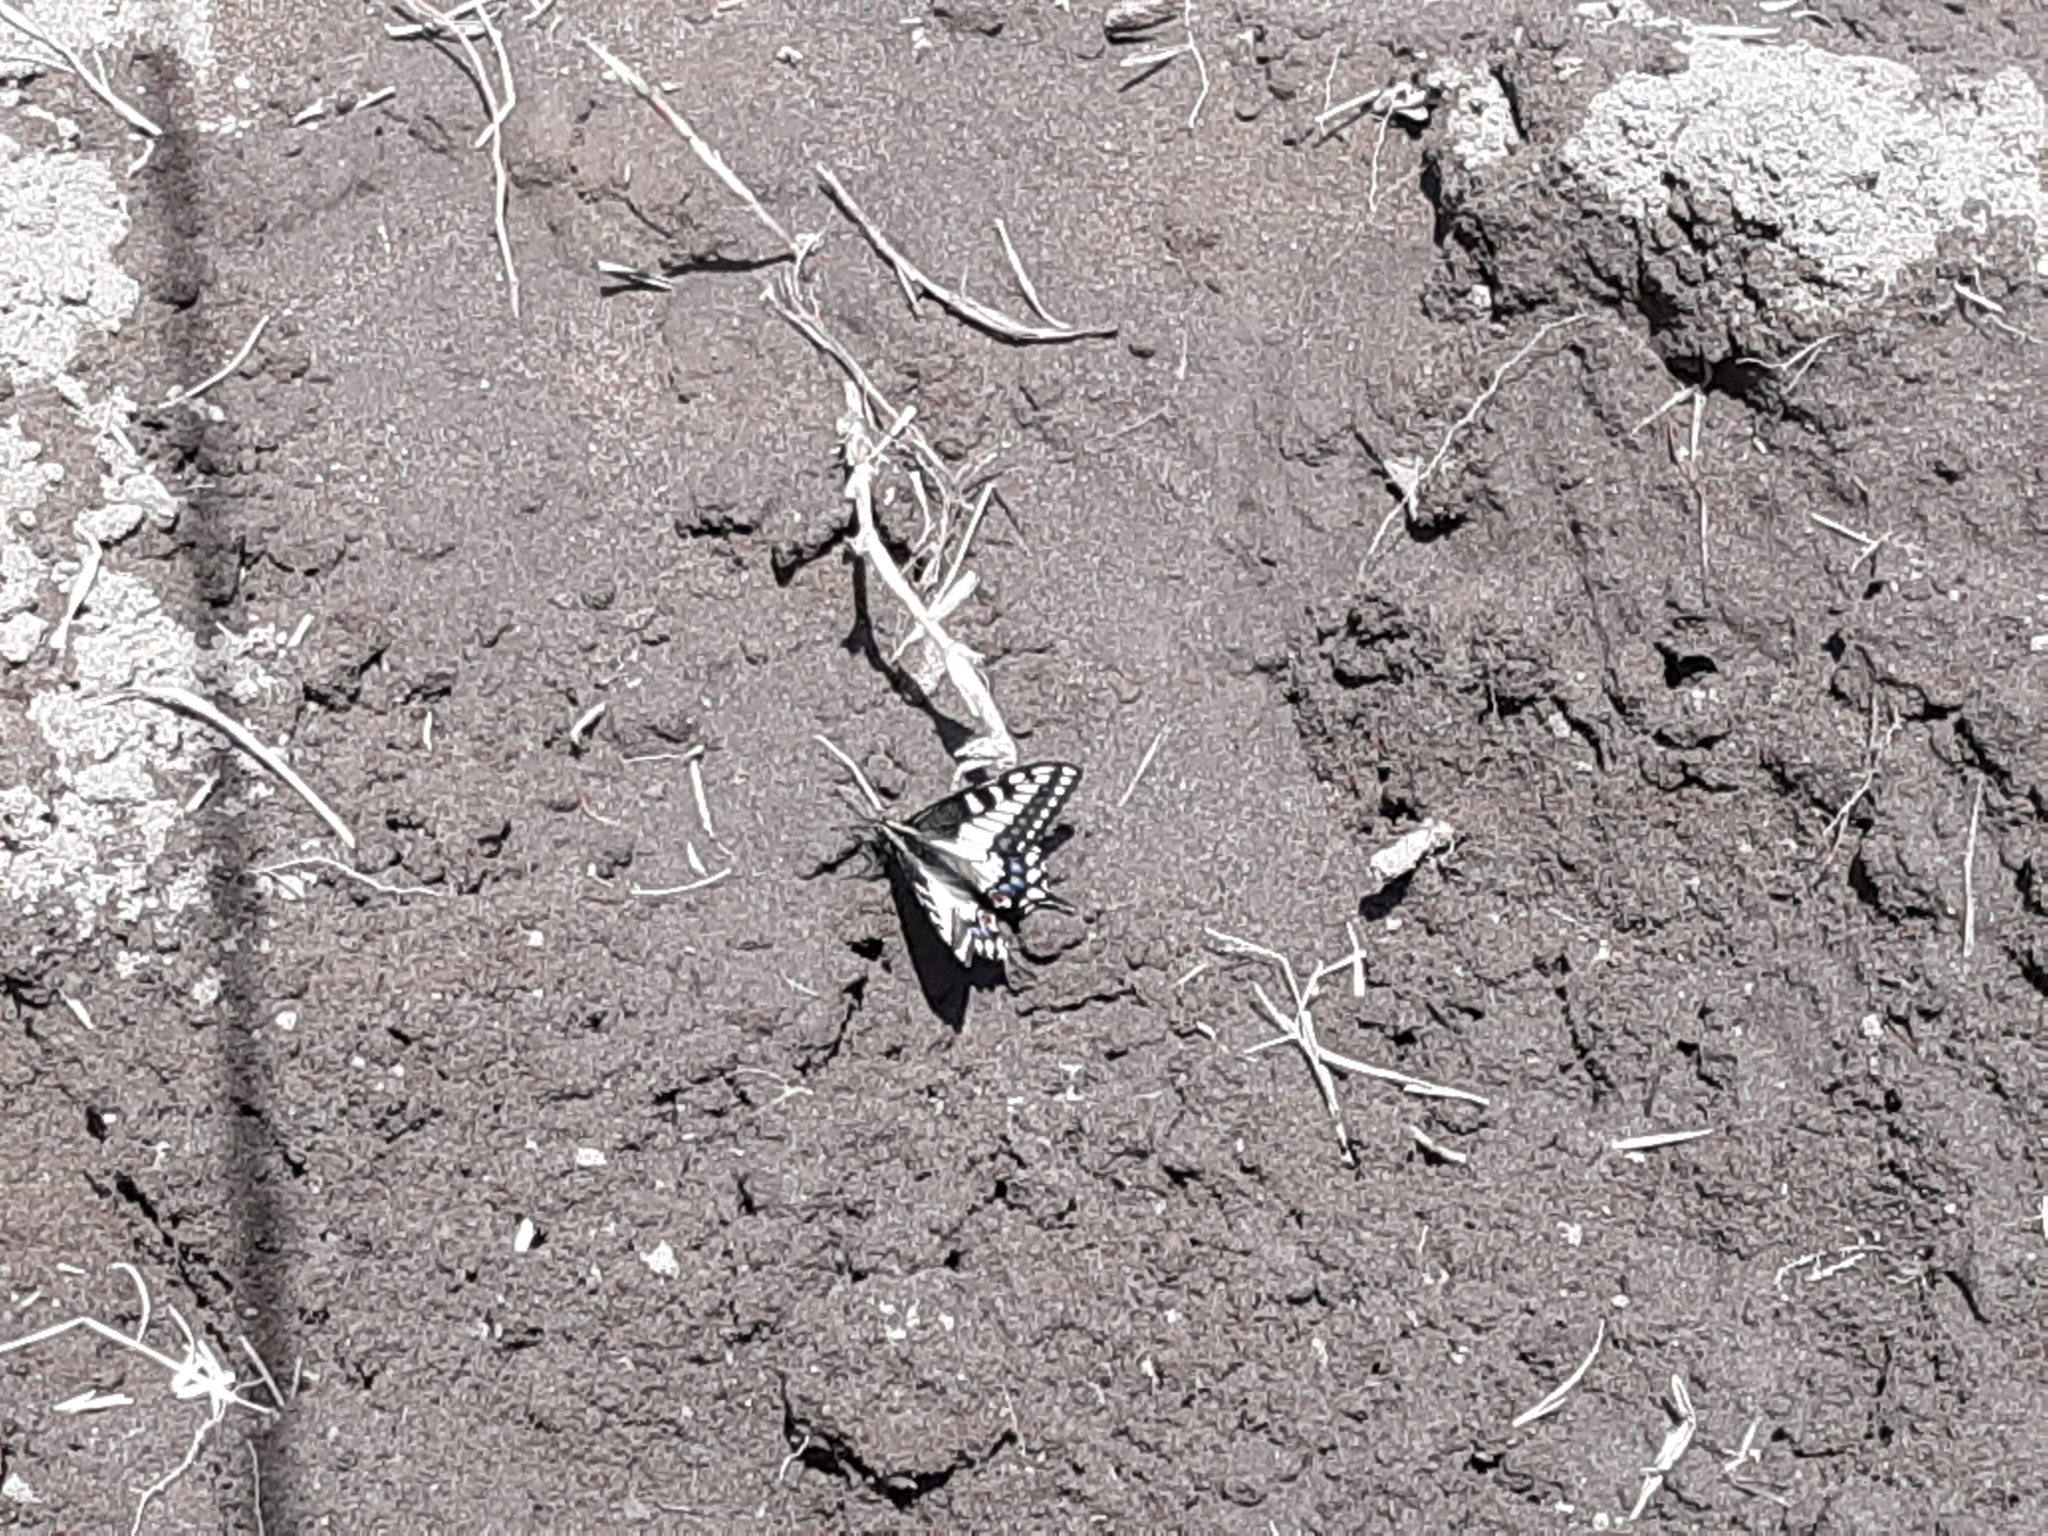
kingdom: Animalia
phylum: Arthropoda
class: Insecta
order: Lepidoptera
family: Papilionidae
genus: Papilio
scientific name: Papilio zelicaon
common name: Anise swallowtail
